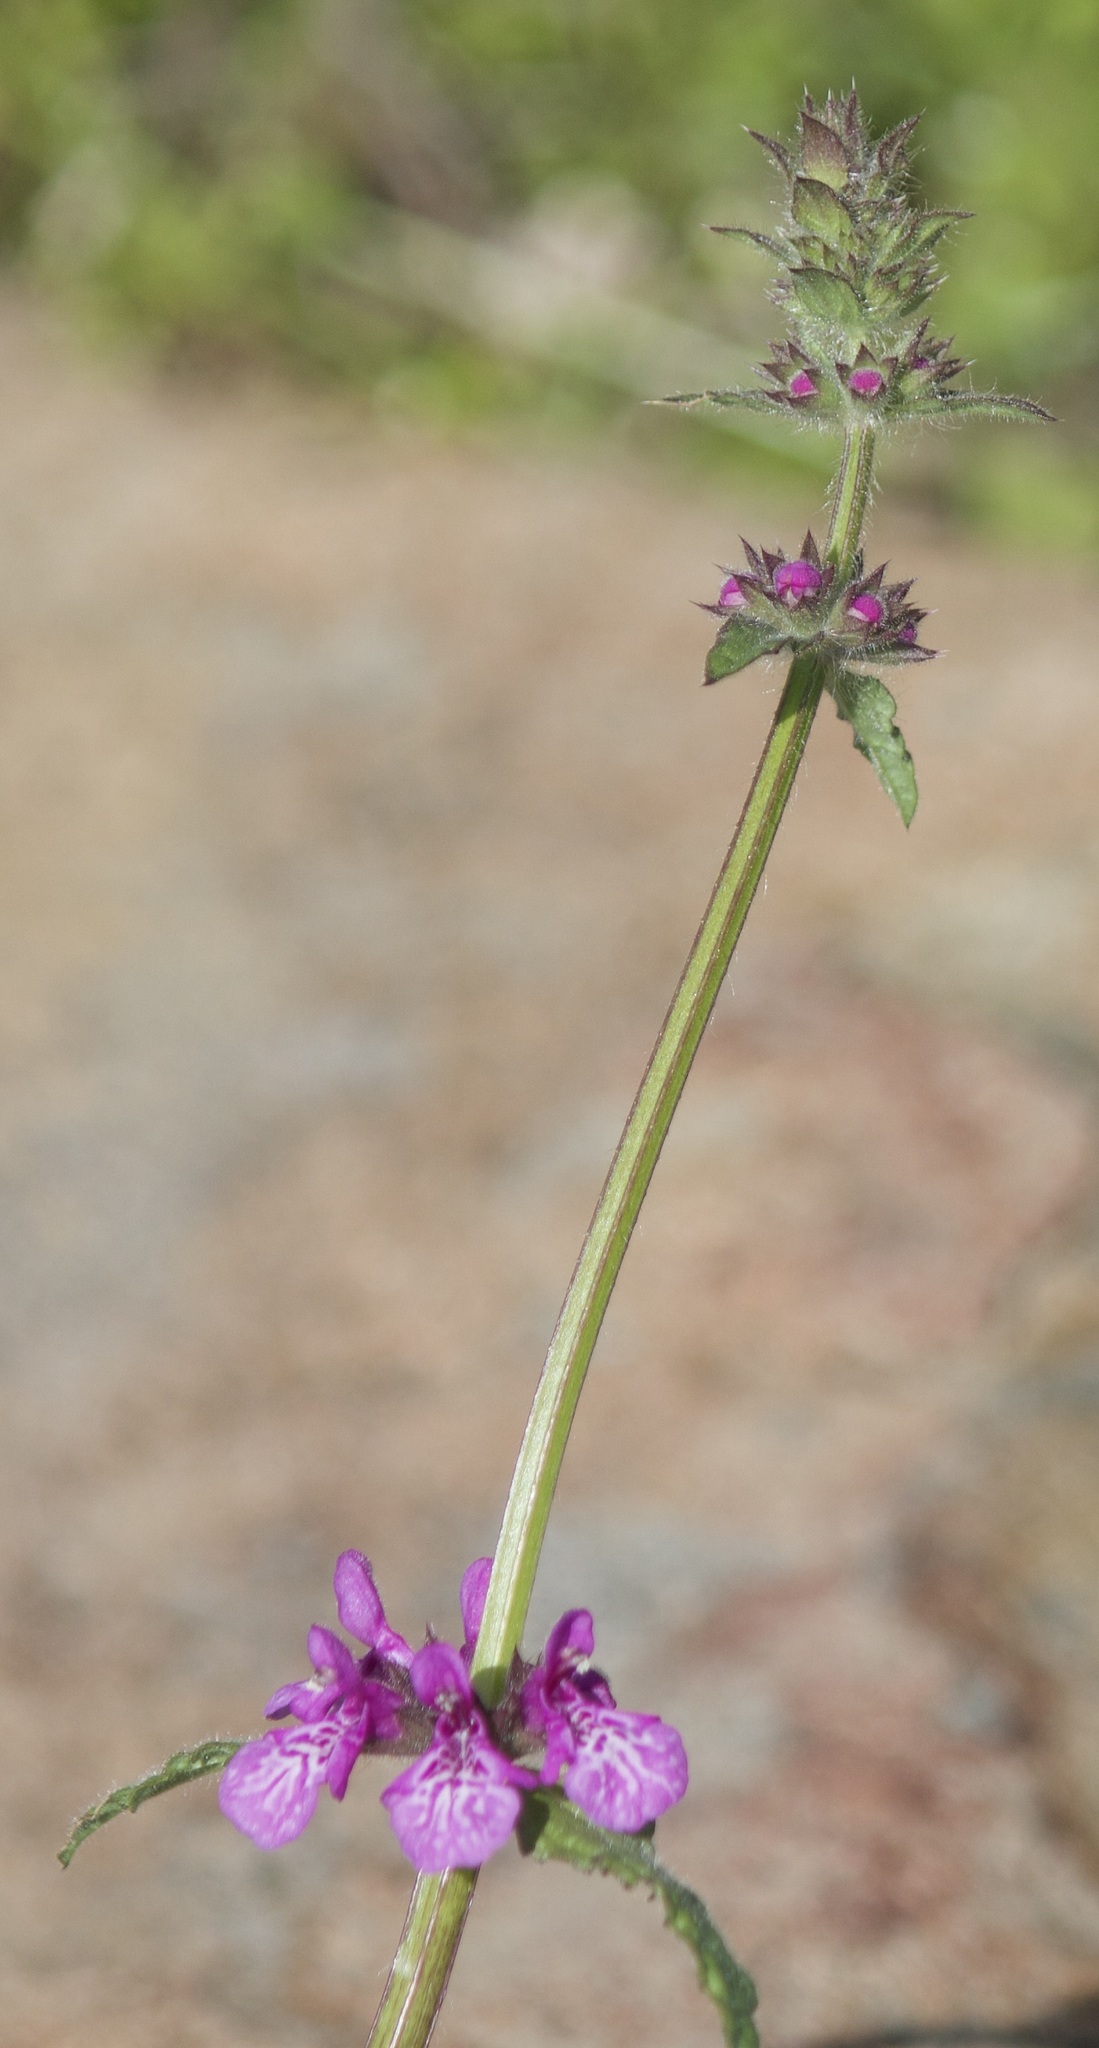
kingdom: Plantae
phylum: Tracheophyta
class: Magnoliopsida
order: Lamiales
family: Lamiaceae
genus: Stachys
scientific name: Stachys grandidentata
